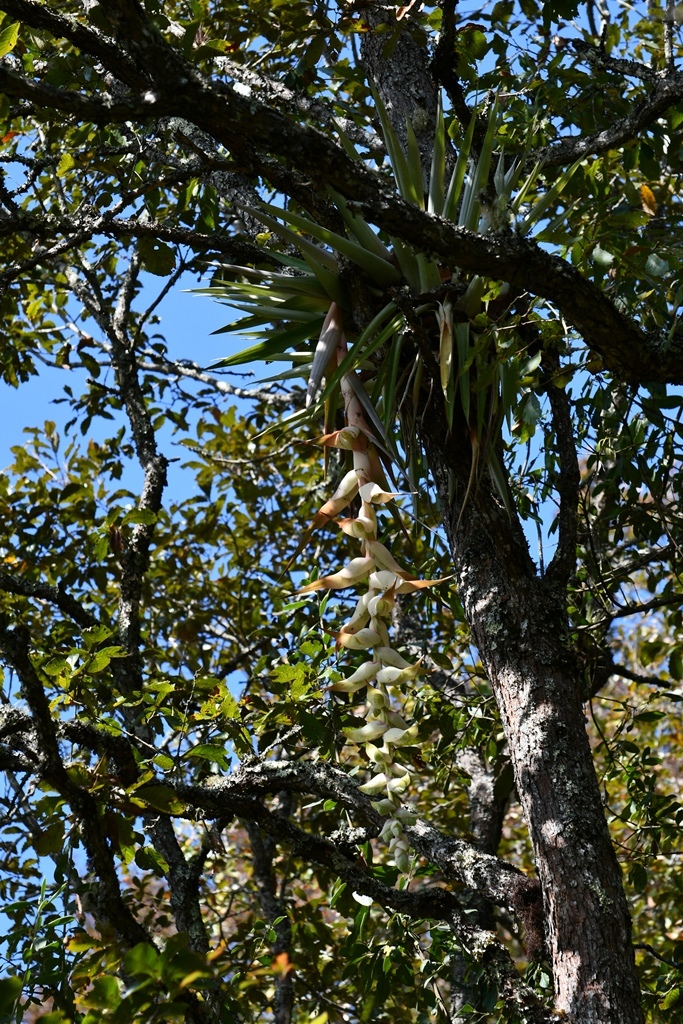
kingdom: Plantae
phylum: Tracheophyta
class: Liliopsida
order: Poales
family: Bromeliaceae
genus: Tillandsia
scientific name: Tillandsia eizii
